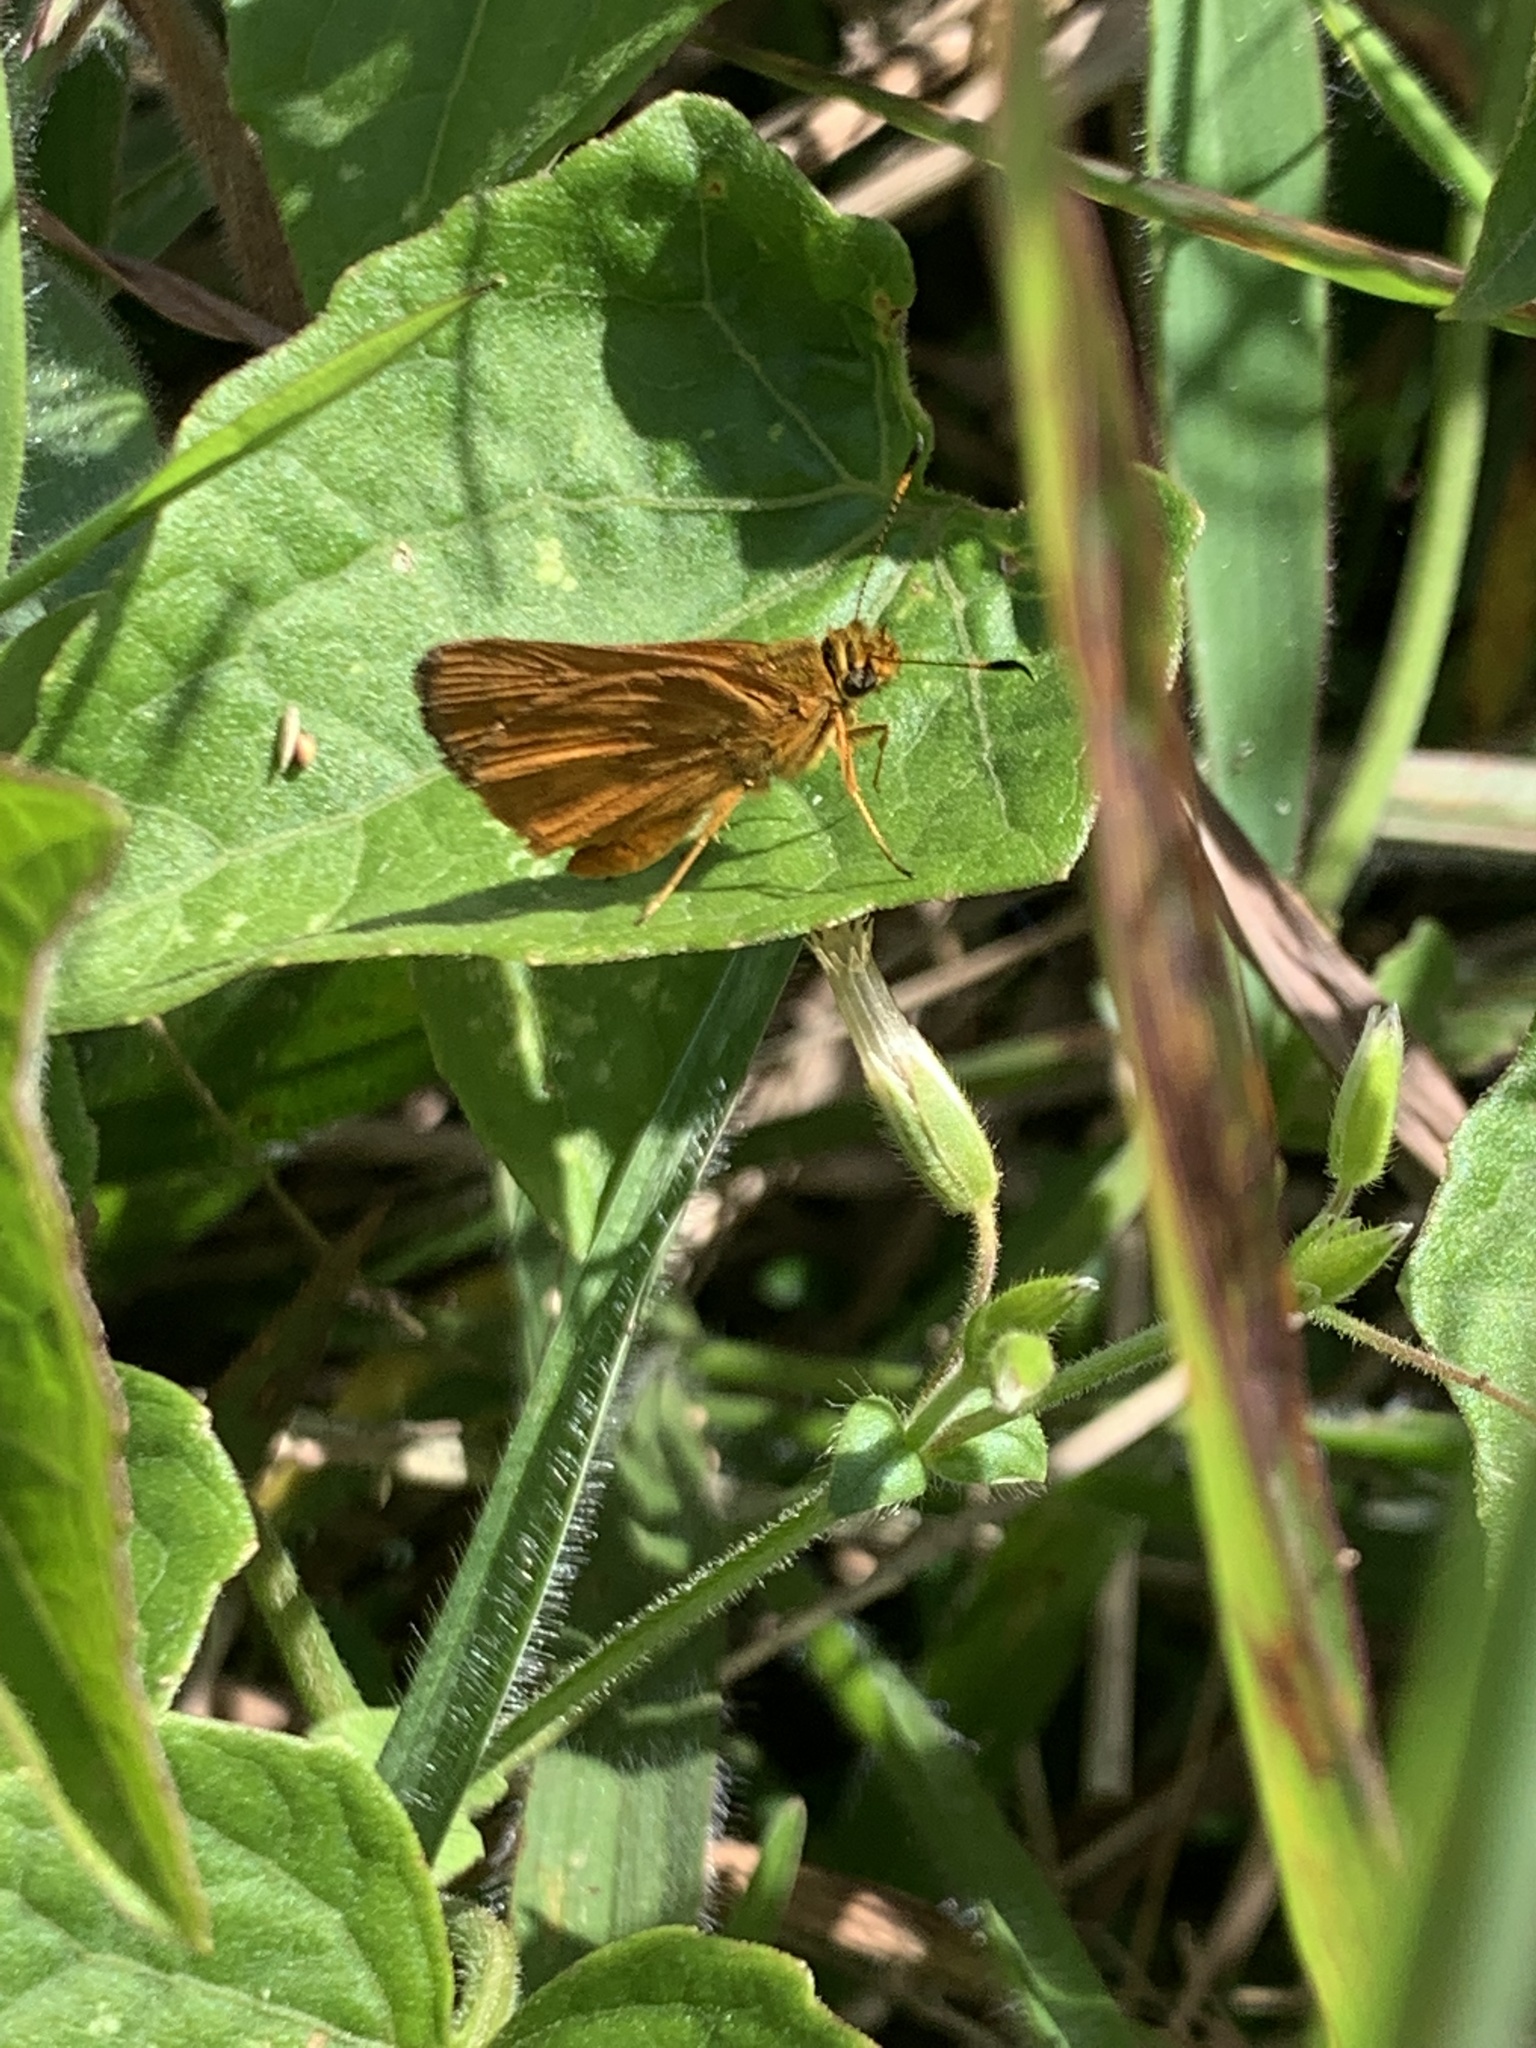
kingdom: Animalia
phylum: Arthropoda
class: Insecta
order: Lepidoptera
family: Hesperiidae
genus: Anthoptus
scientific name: Anthoptus epictetus
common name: Trailside skipper
